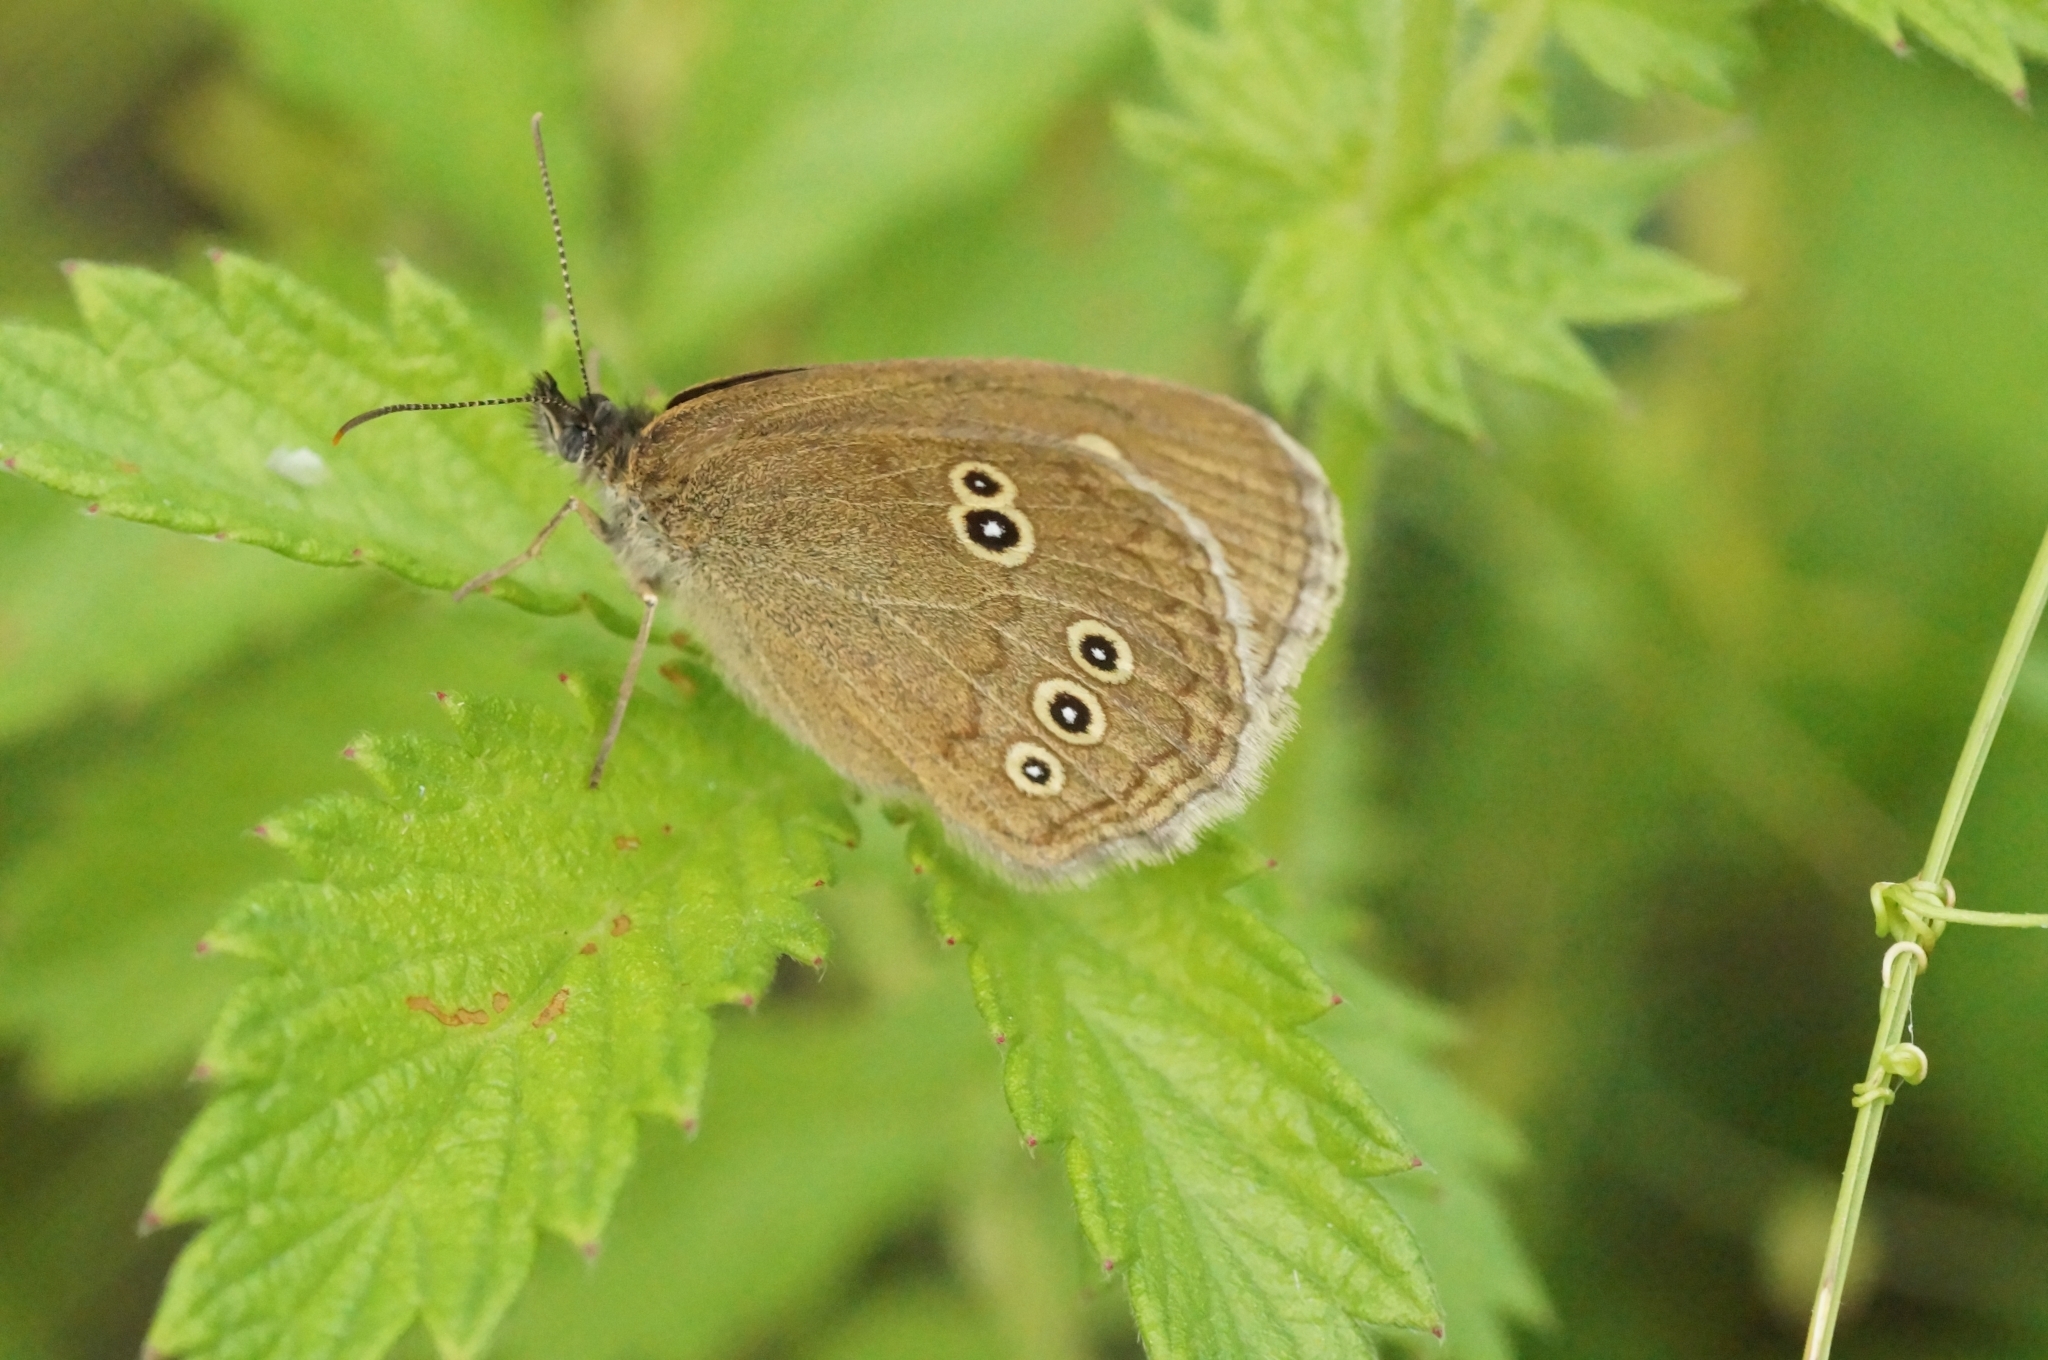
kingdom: Animalia
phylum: Arthropoda
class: Insecta
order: Lepidoptera
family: Nymphalidae
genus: Aphantopus
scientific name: Aphantopus hyperantus
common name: Ringlet
